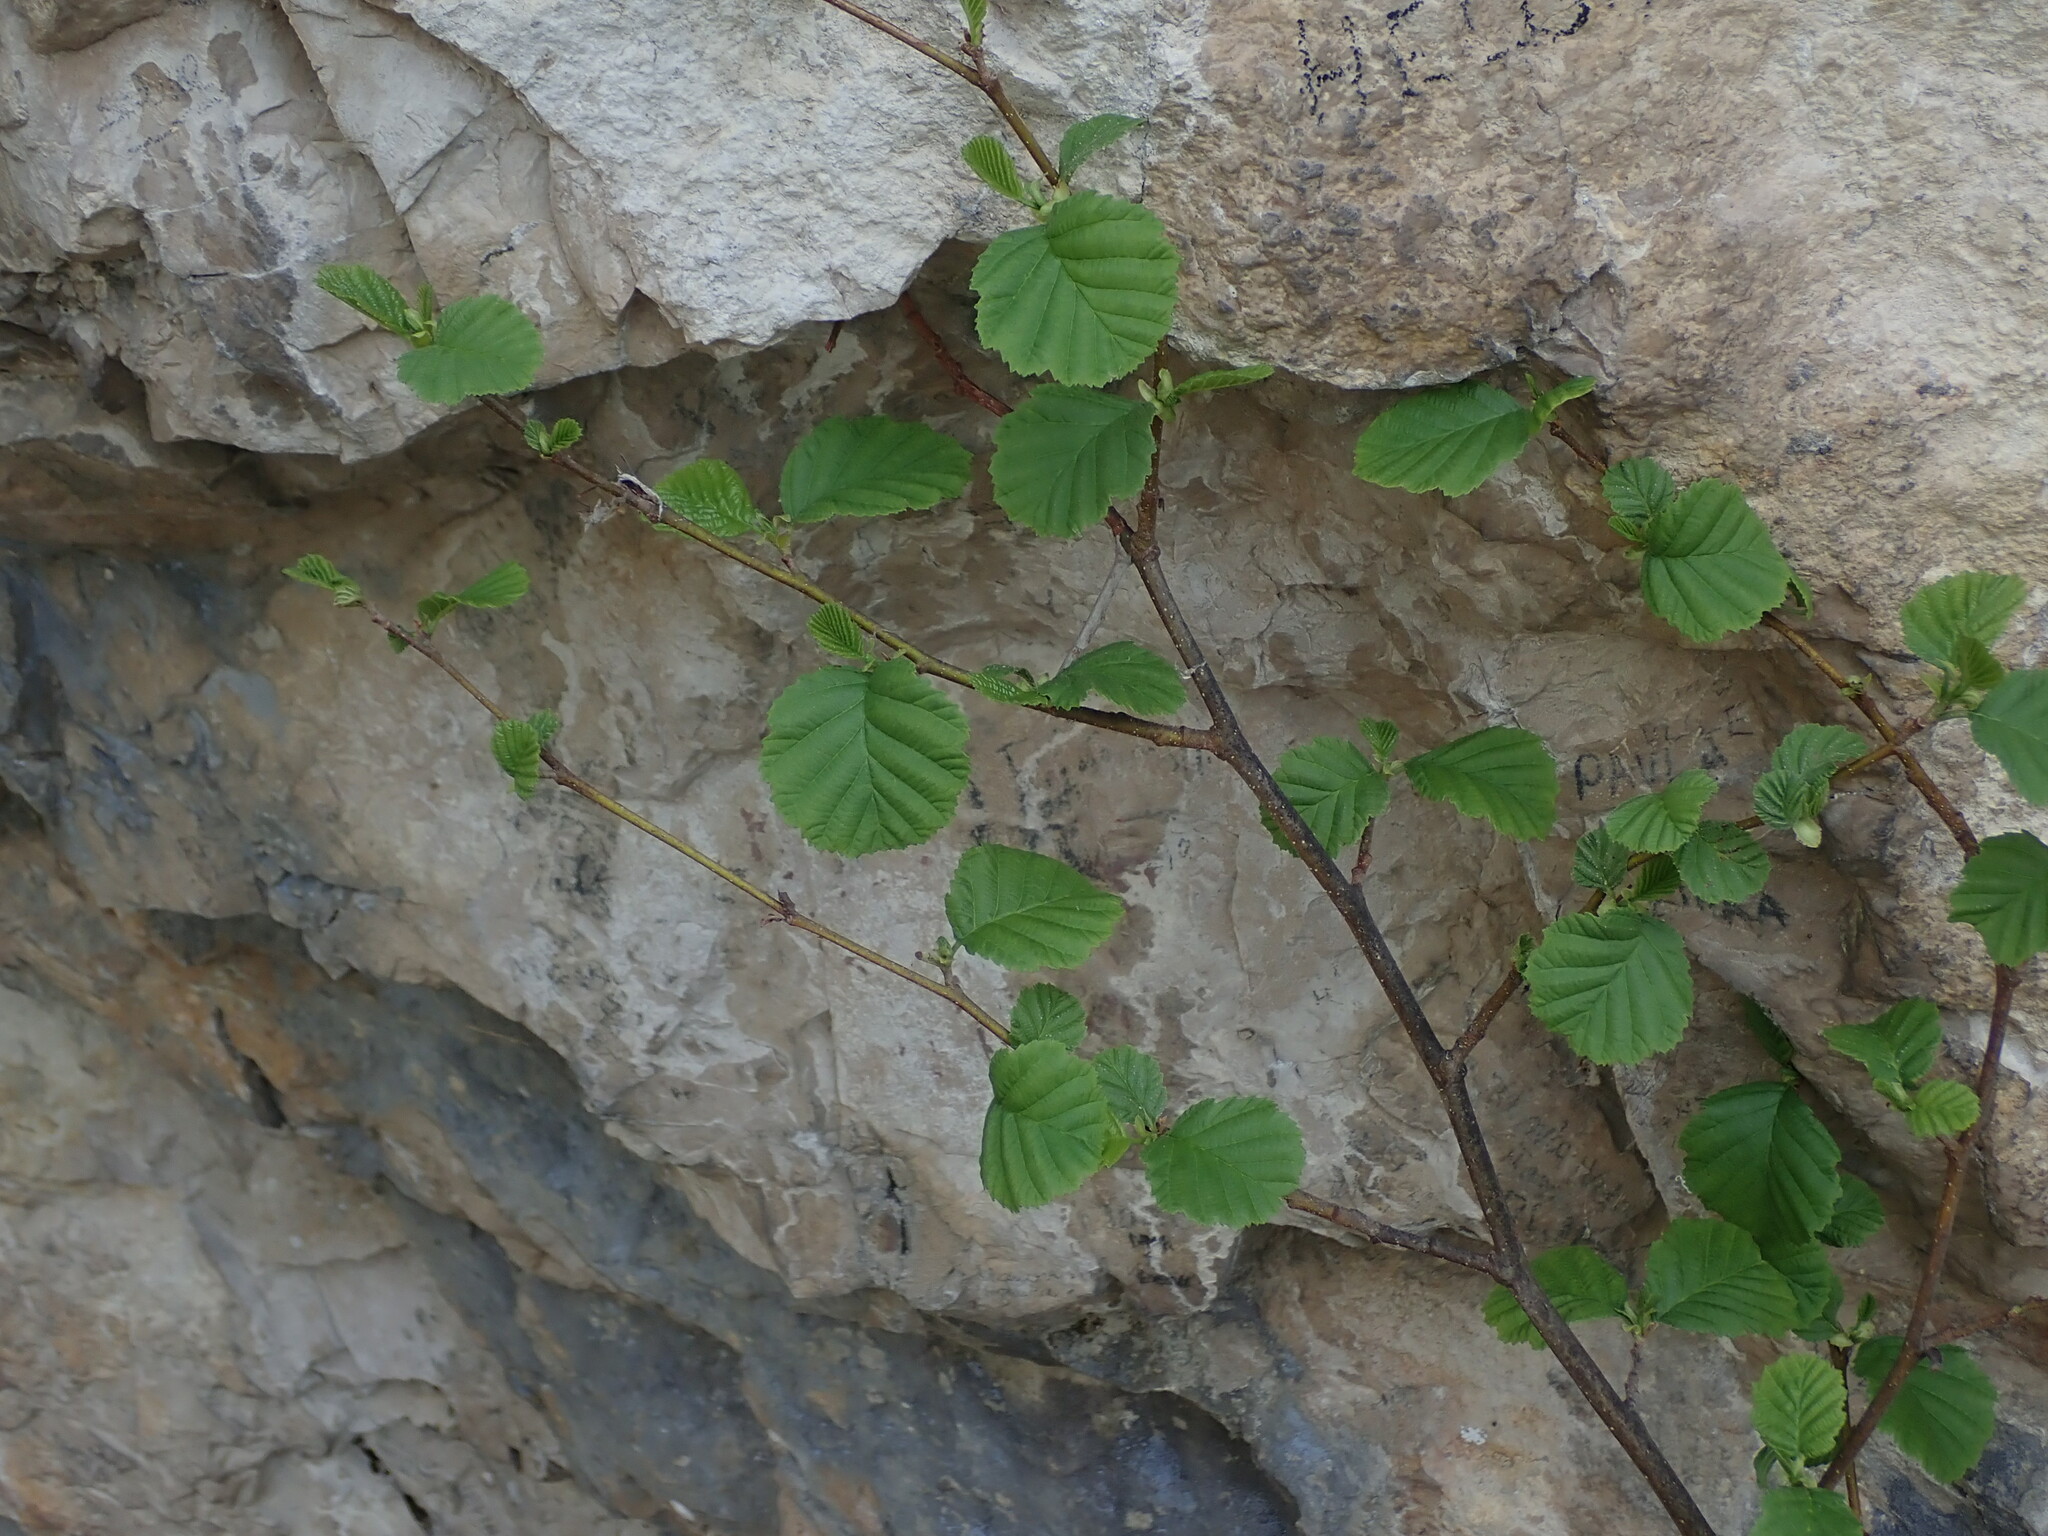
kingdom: Plantae
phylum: Tracheophyta
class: Magnoliopsida
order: Fagales
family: Betulaceae
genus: Alnus
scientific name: Alnus glutinosa
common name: Black alder
